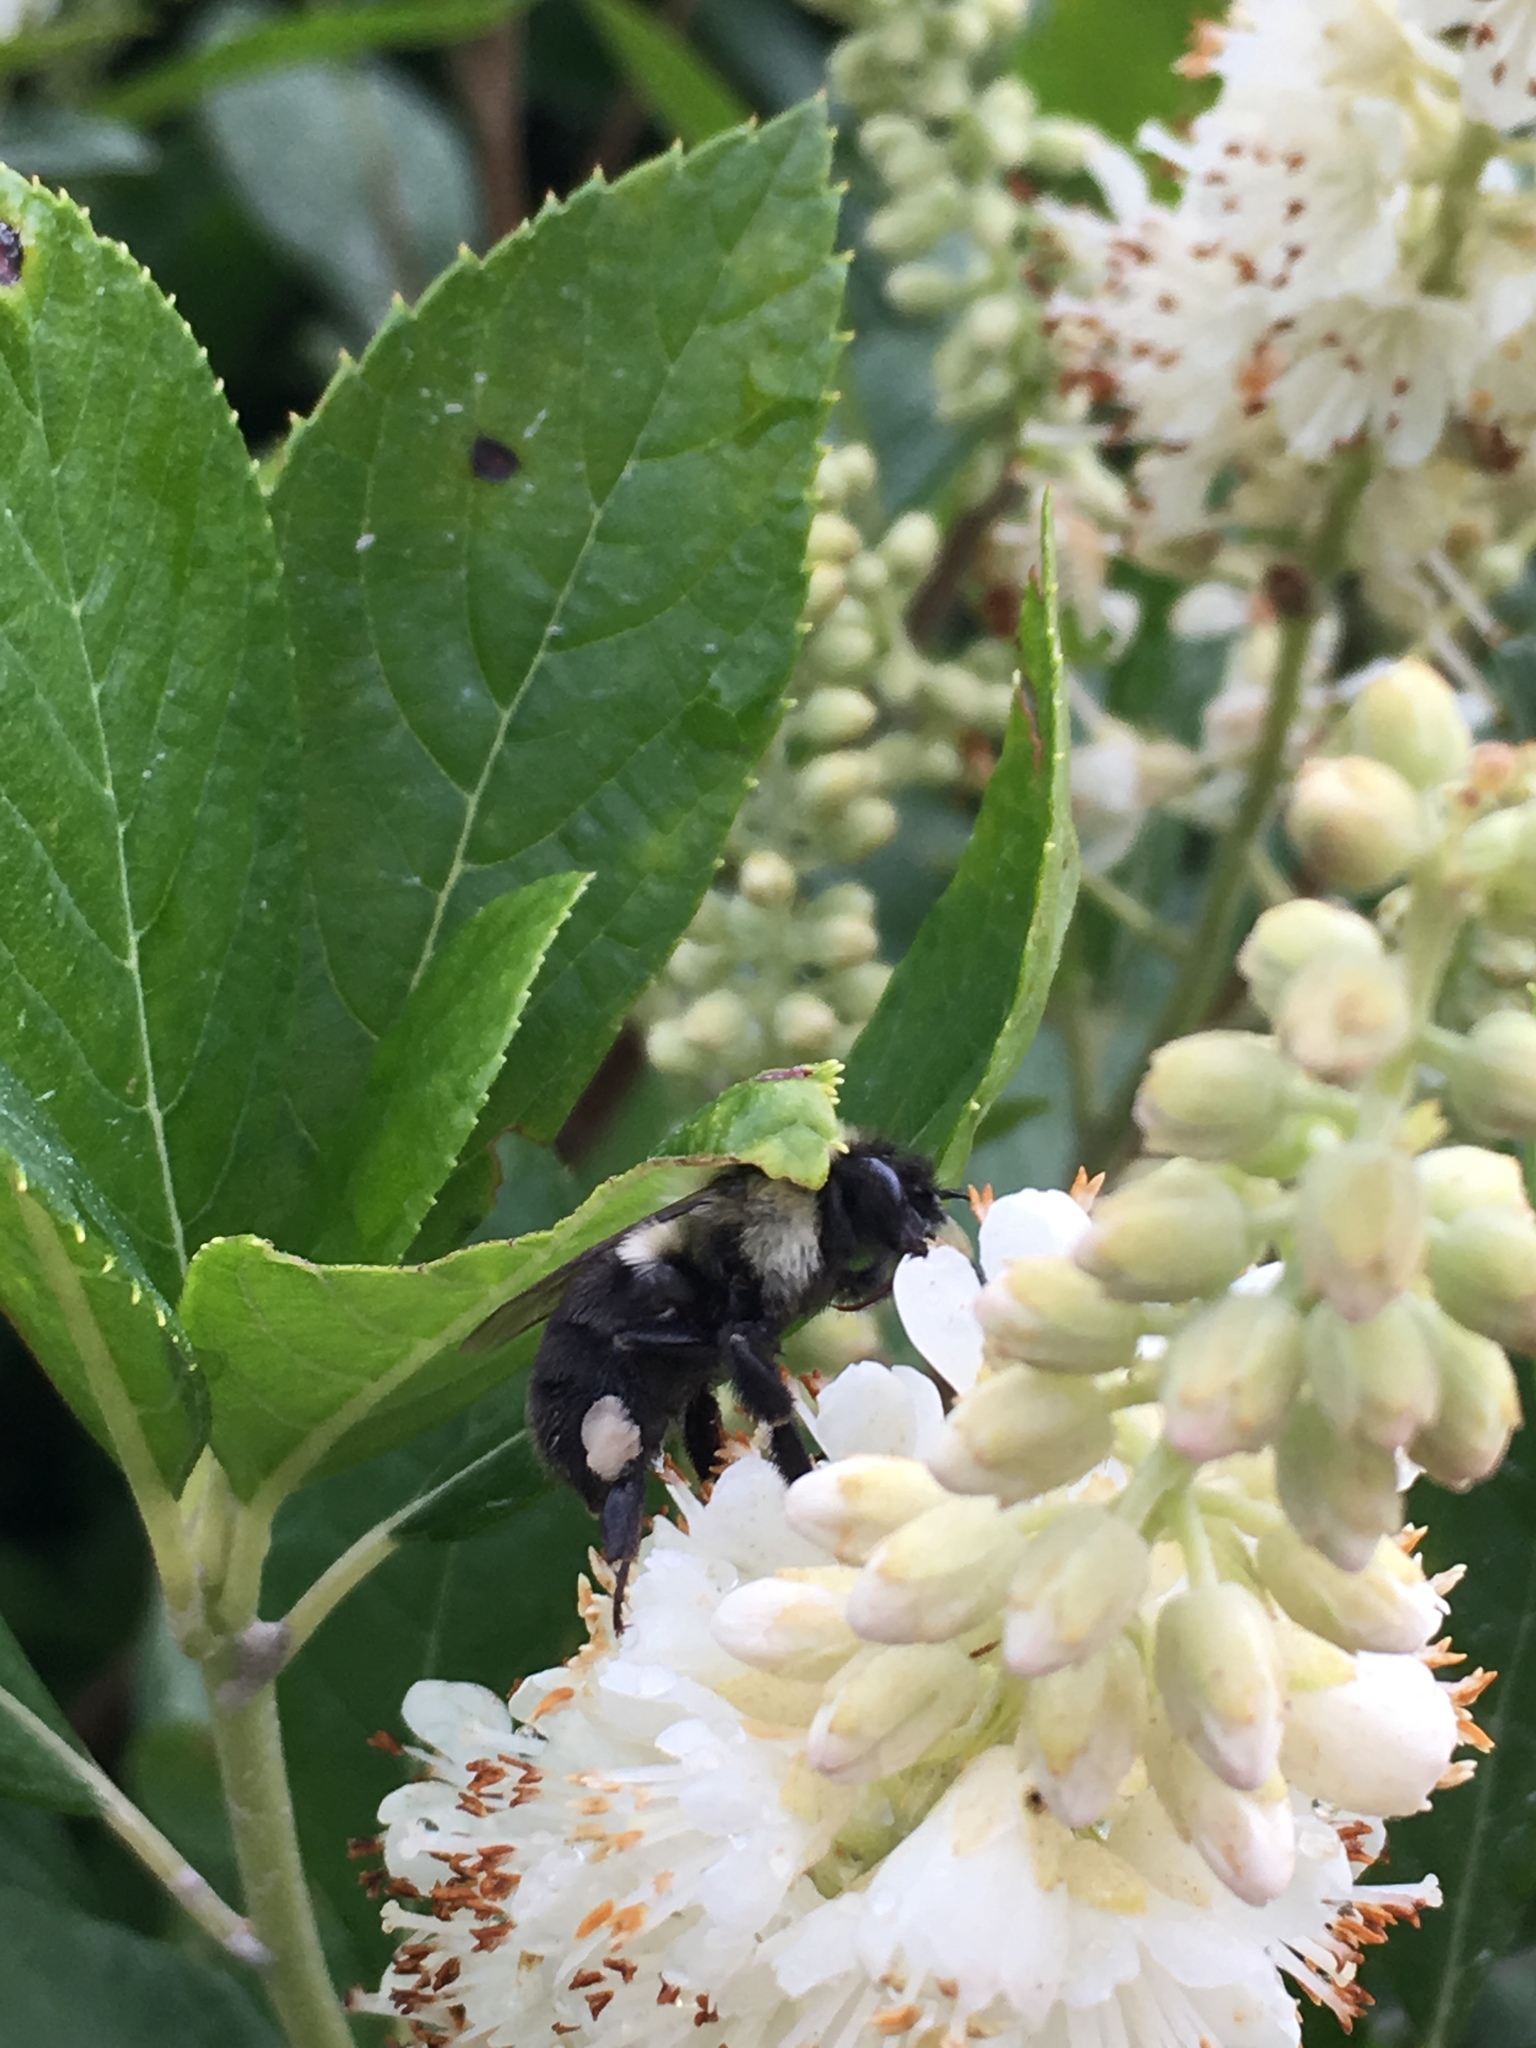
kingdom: Animalia
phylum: Arthropoda
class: Insecta
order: Hymenoptera
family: Apidae
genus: Bombus
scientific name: Bombus impatiens
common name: Common eastern bumble bee
